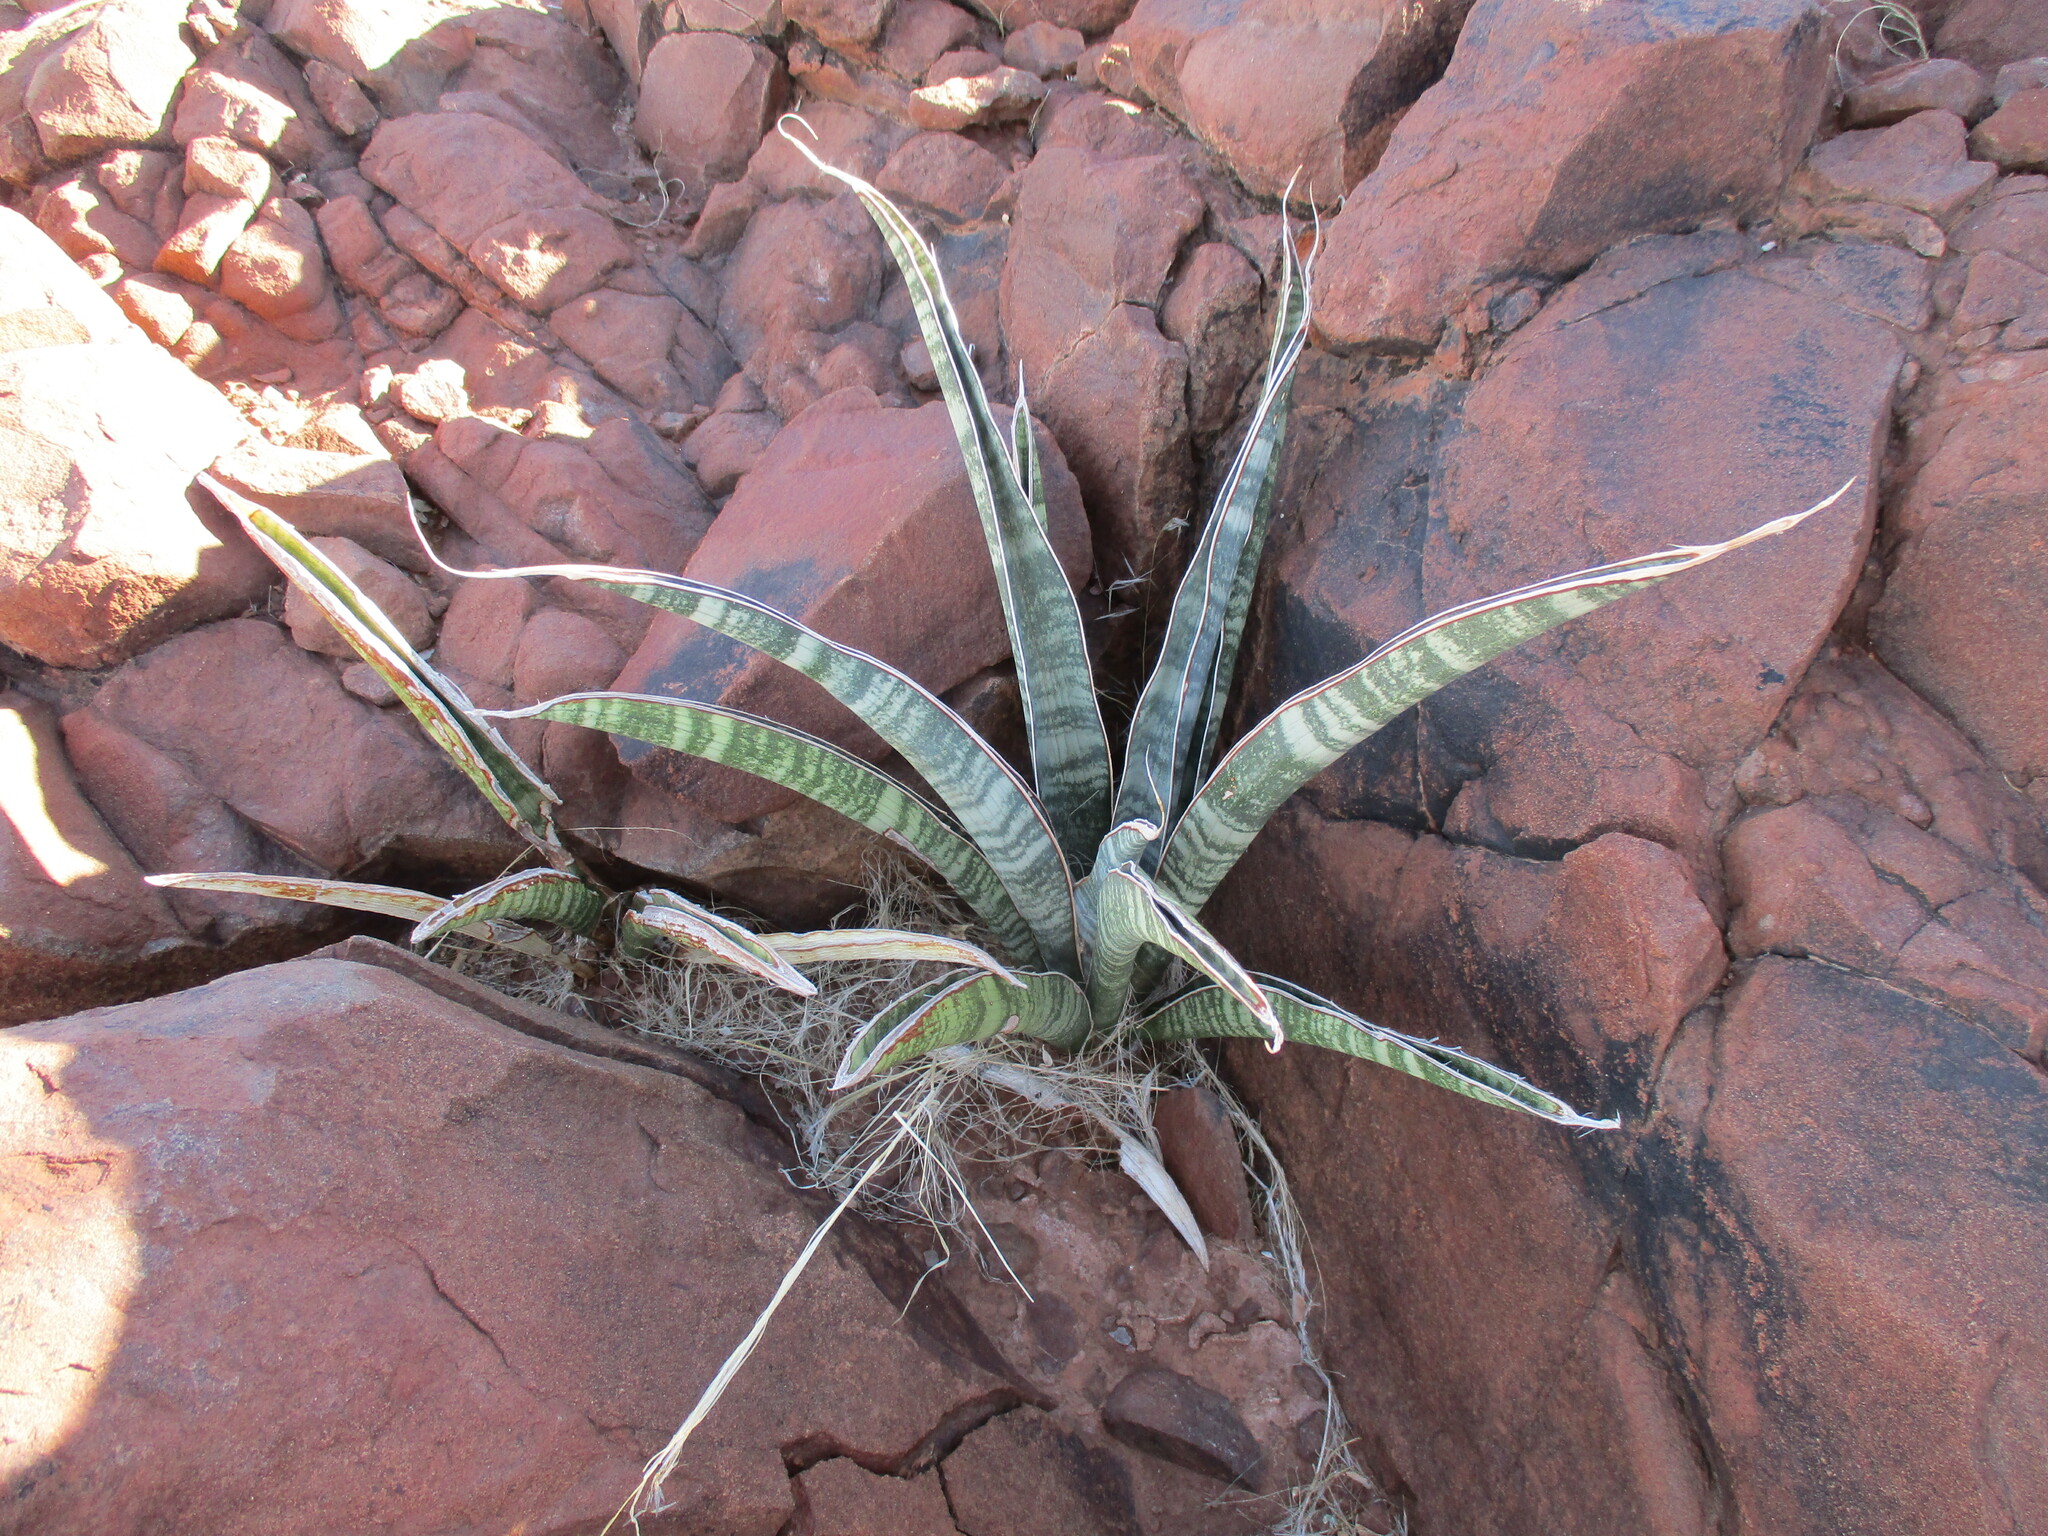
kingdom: Plantae
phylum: Tracheophyta
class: Liliopsida
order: Asparagales
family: Asparagaceae
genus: Dracaena
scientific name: Dracaena aethiopica
